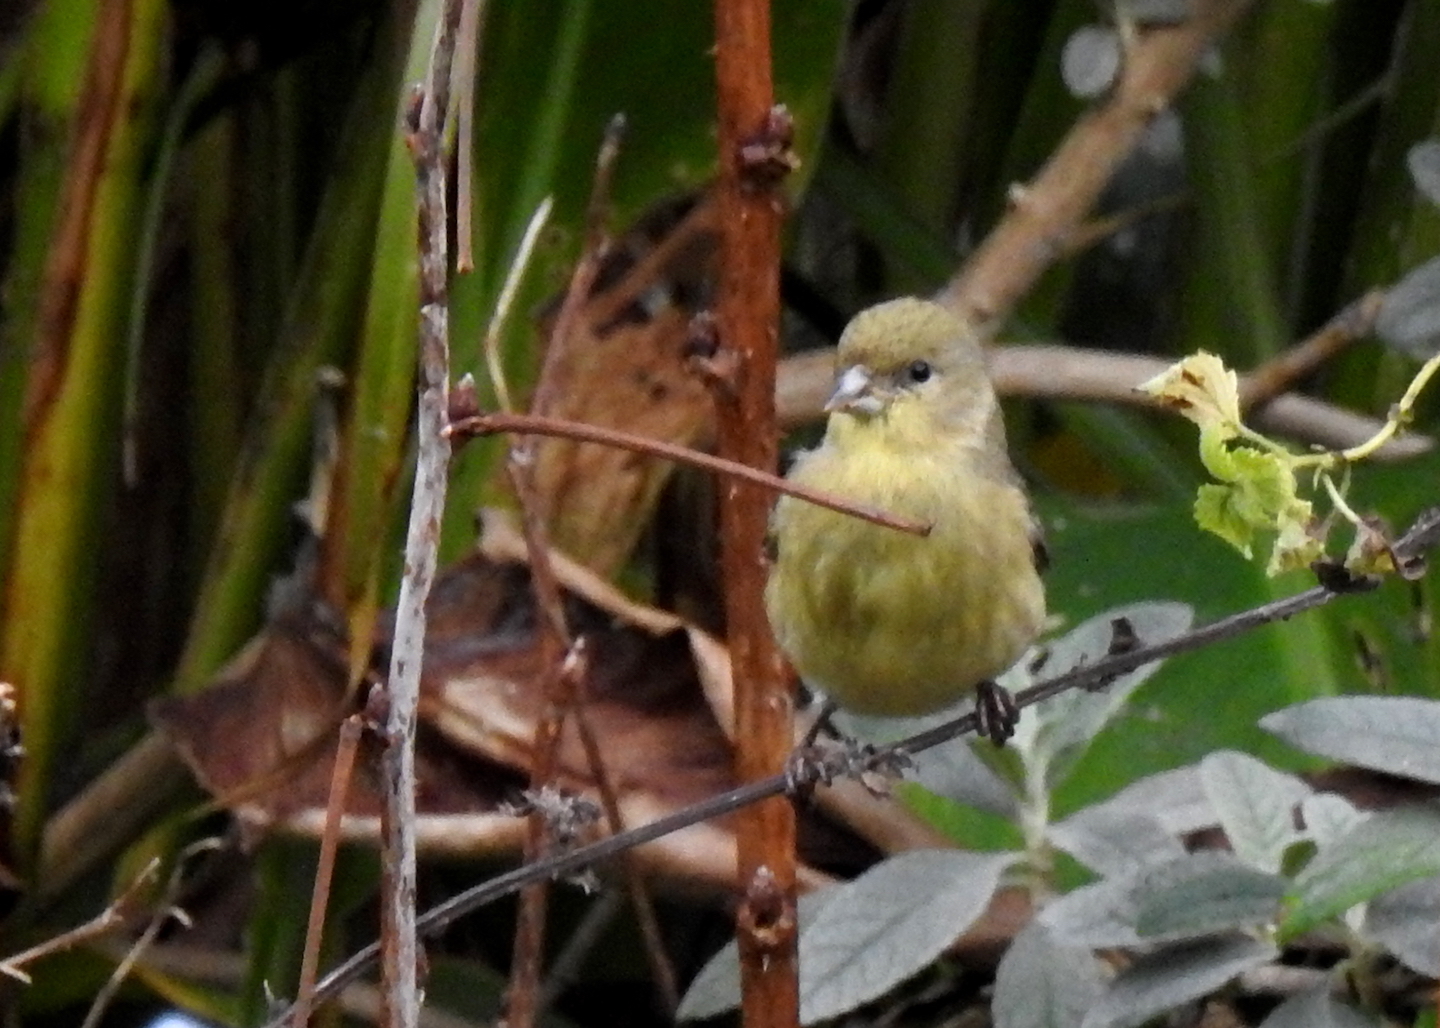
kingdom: Animalia
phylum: Chordata
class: Aves
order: Passeriformes
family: Fringillidae
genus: Spinus
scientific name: Spinus psaltria
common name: Lesser goldfinch
